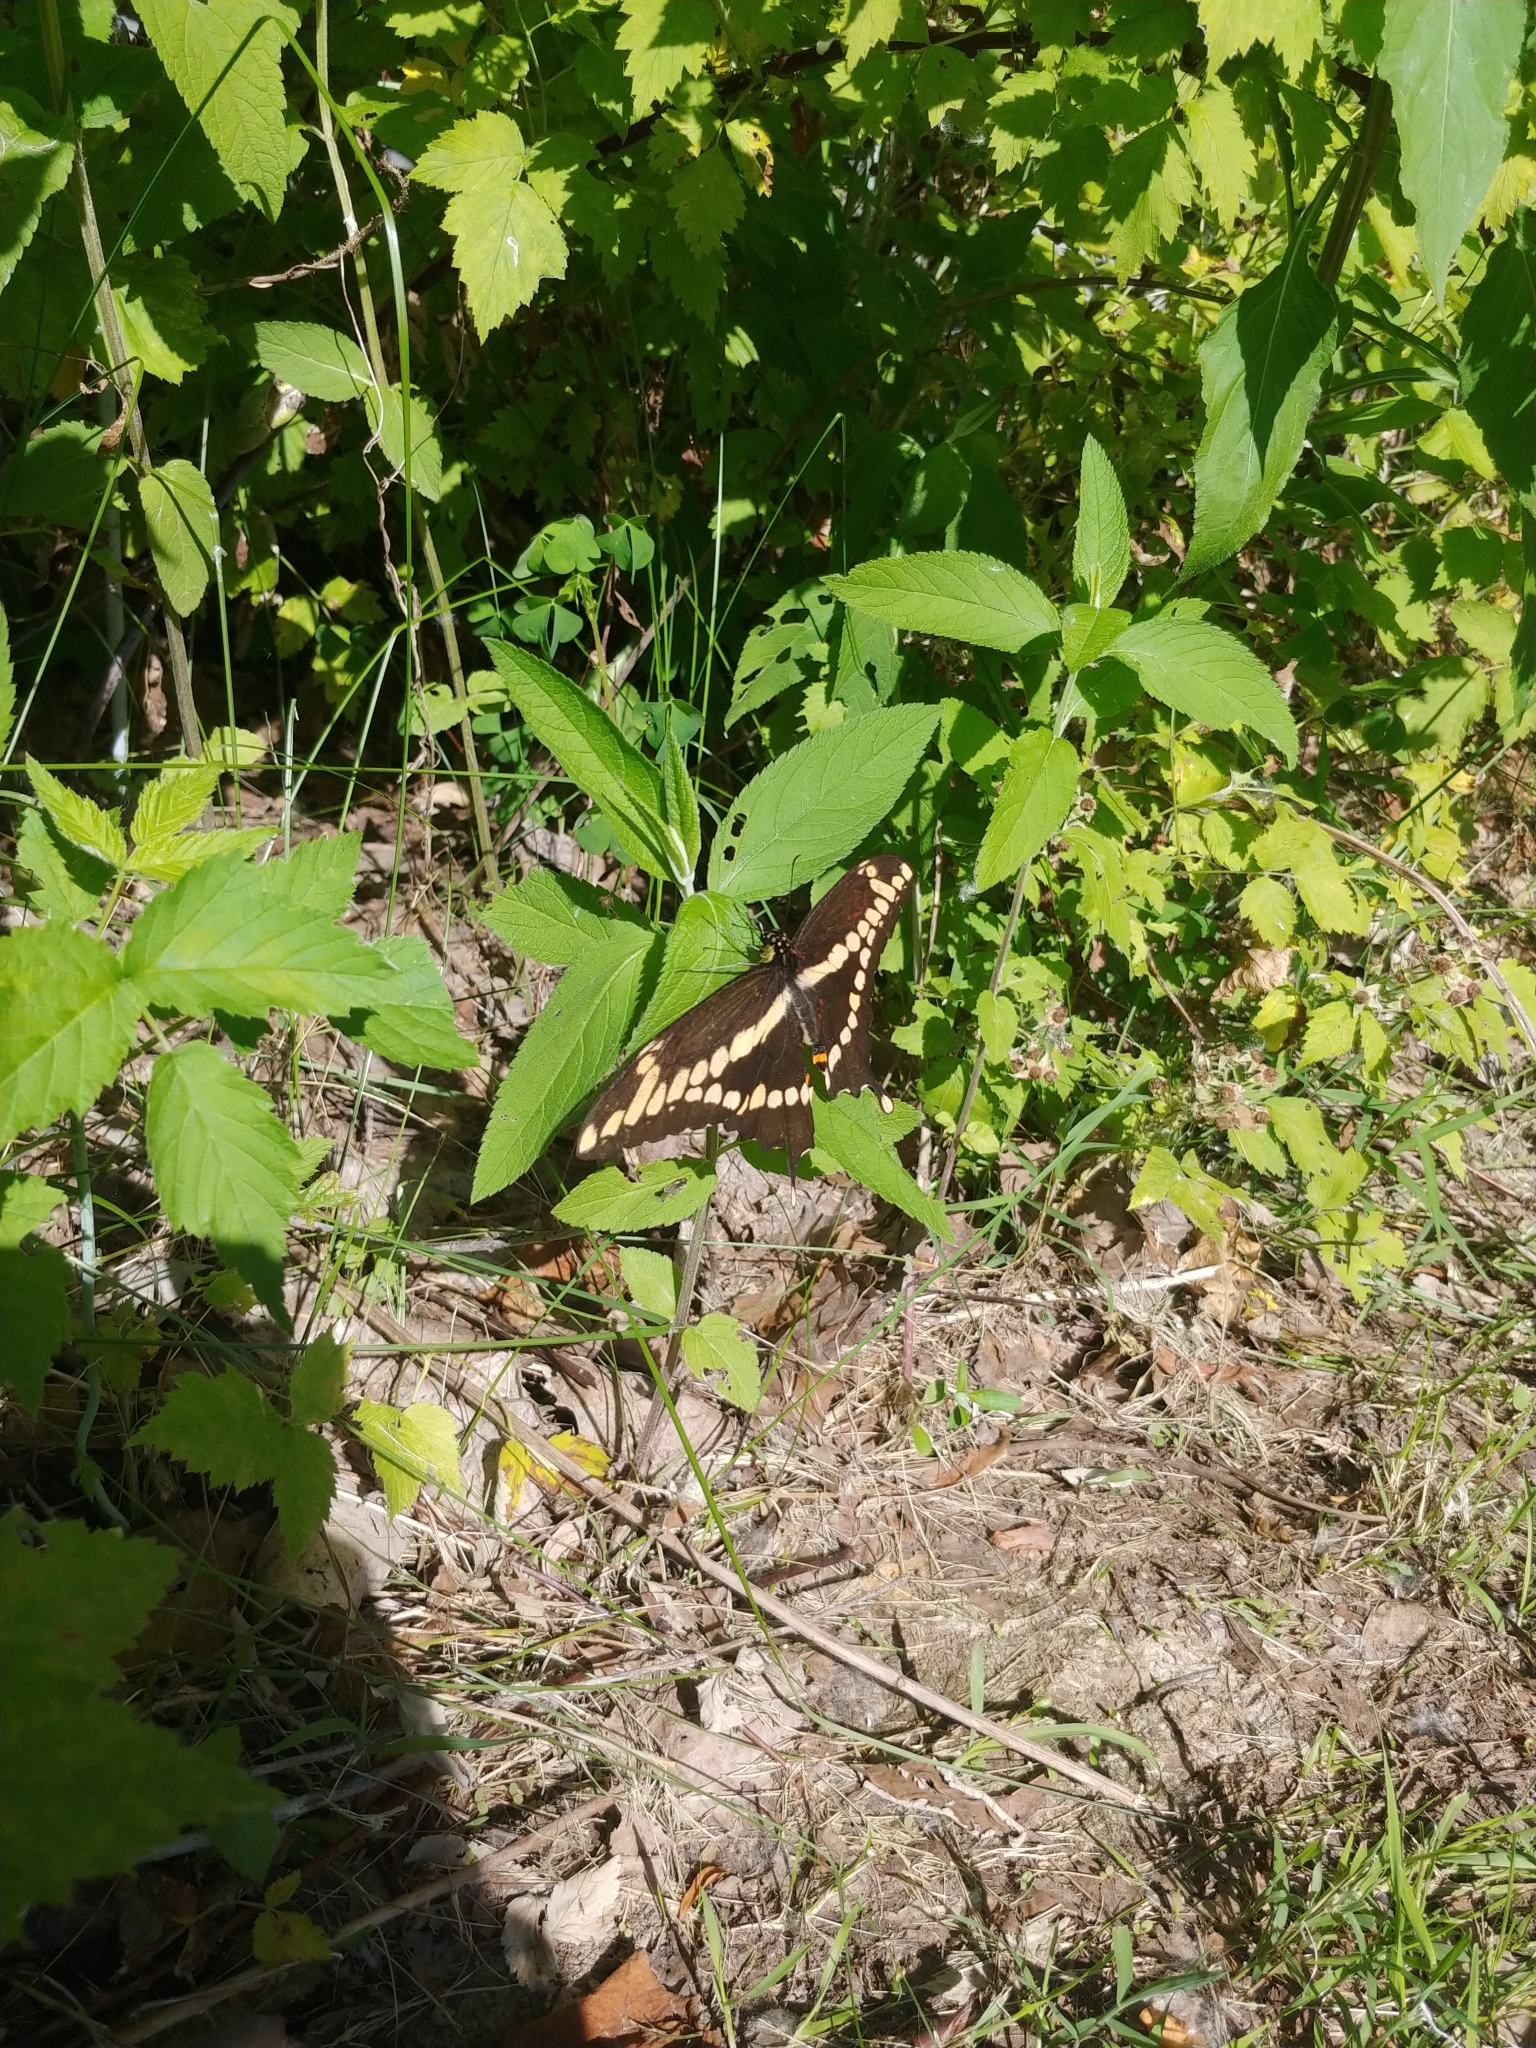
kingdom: Animalia
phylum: Arthropoda
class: Insecta
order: Lepidoptera
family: Papilionidae
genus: Papilio
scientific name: Papilio cresphontes
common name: Giant swallowtail
